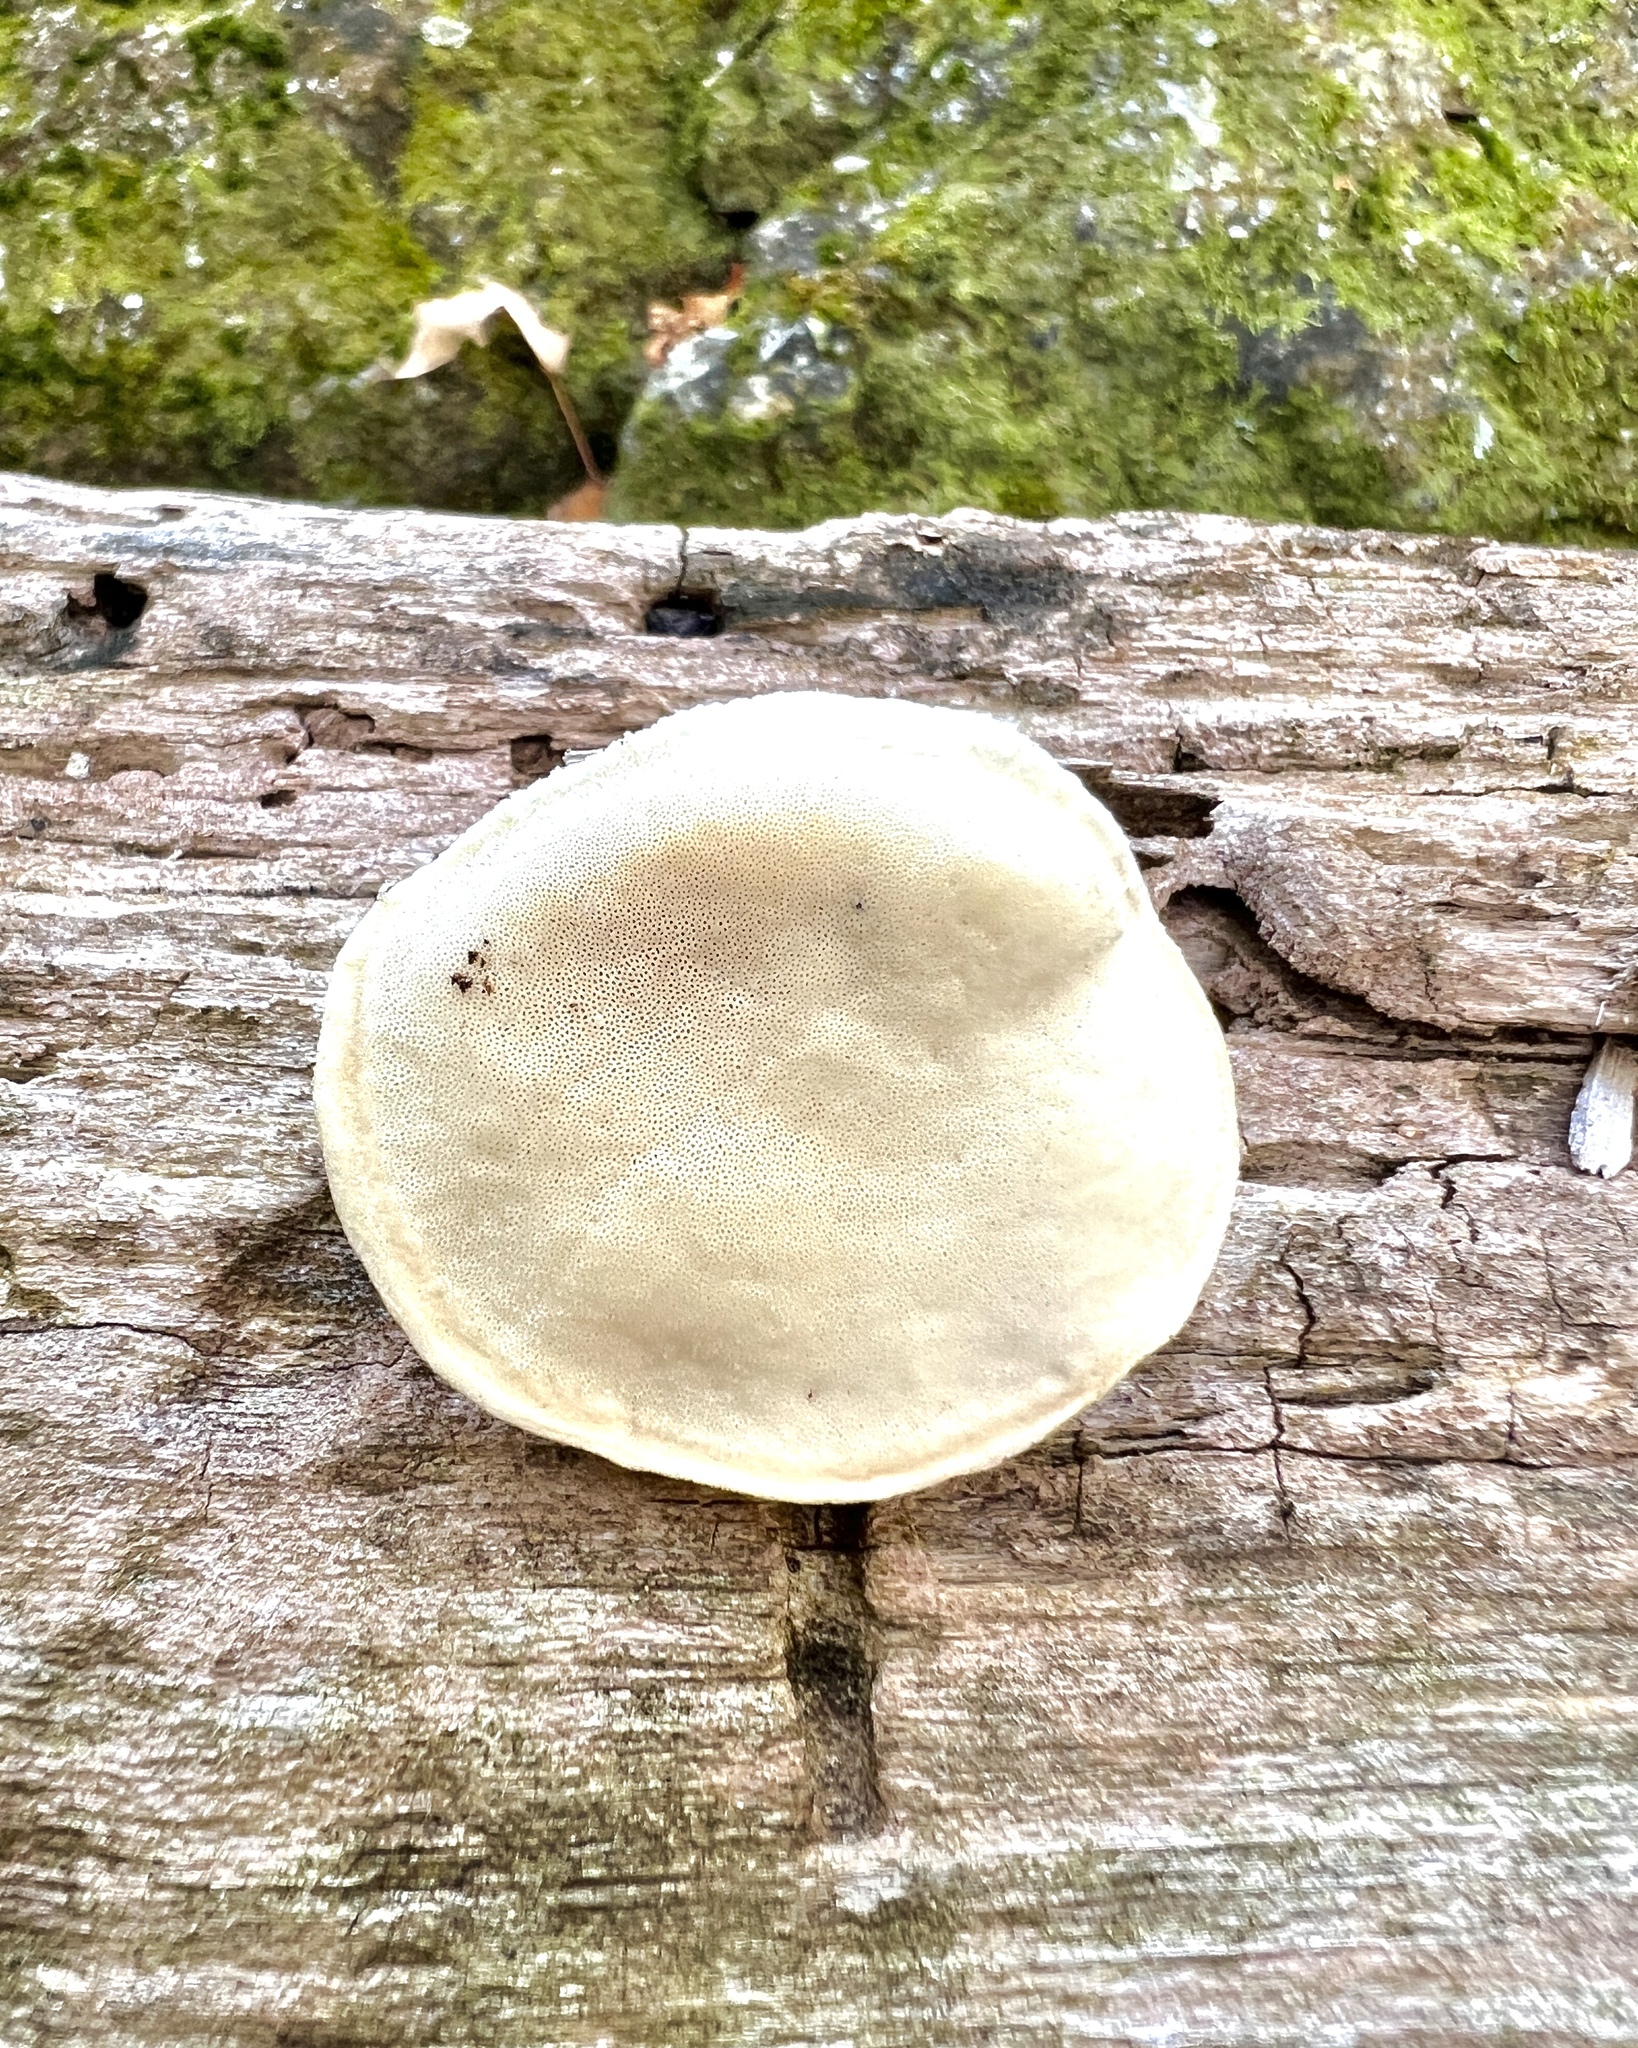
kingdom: Fungi
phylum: Basidiomycota
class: Agaricomycetes
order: Polyporales
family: Polyporaceae
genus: Cyanosporus
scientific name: Cyanosporus livens
